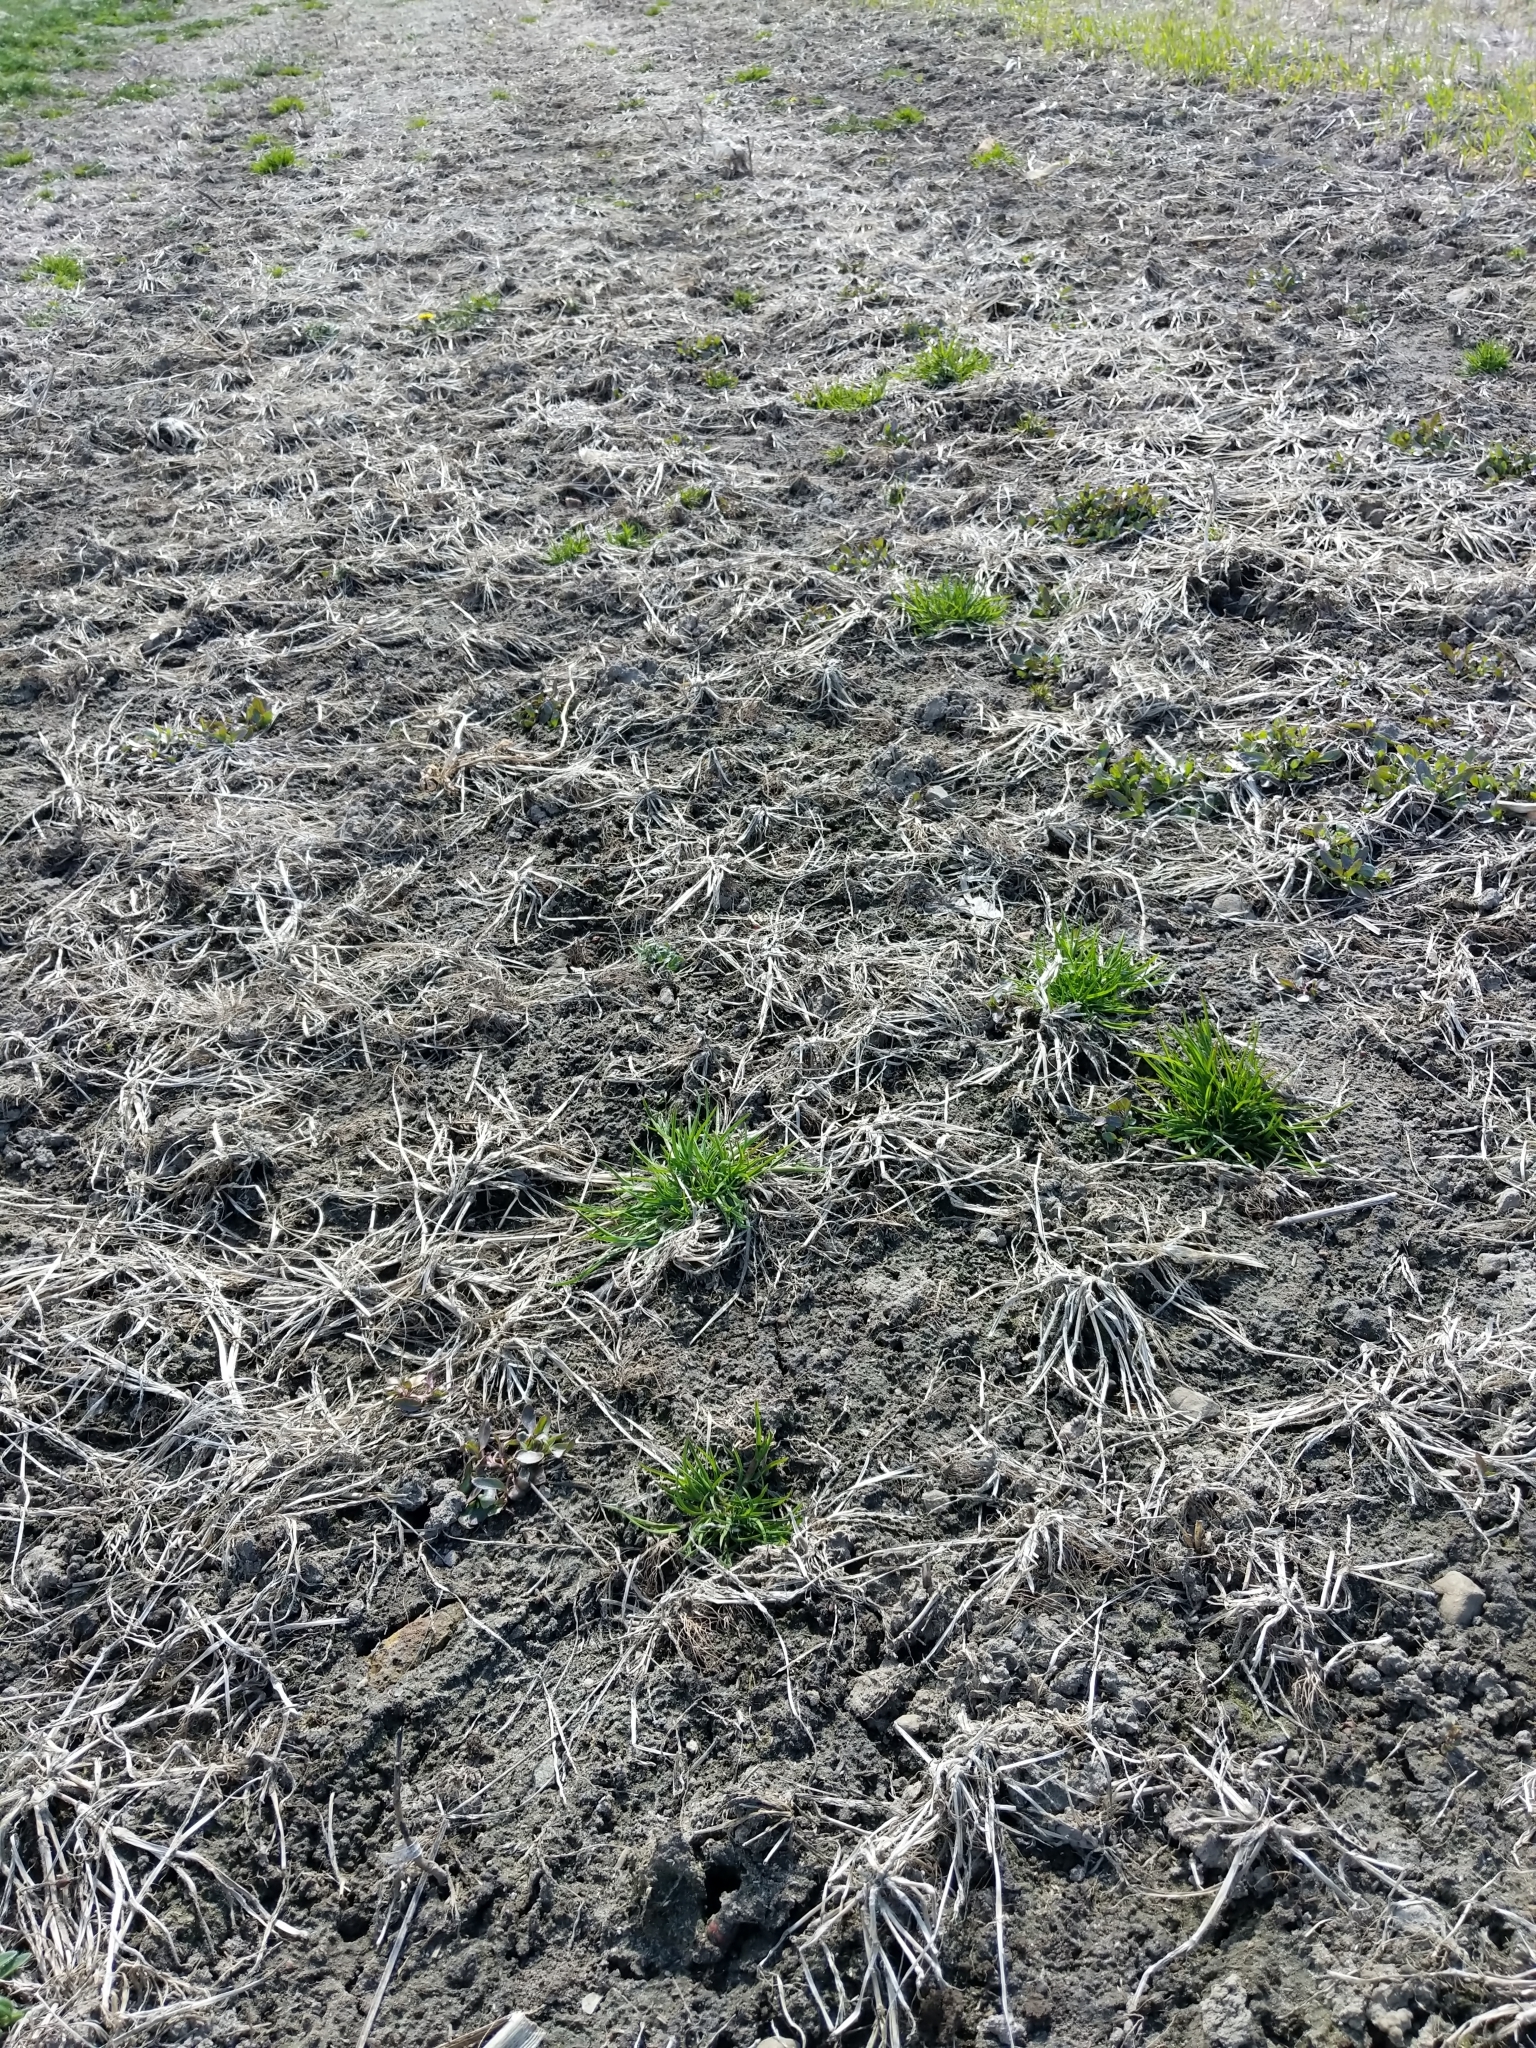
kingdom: Plantae
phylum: Tracheophyta
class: Liliopsida
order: Poales
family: Poaceae
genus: Poa
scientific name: Poa annua
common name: Annual bluegrass
